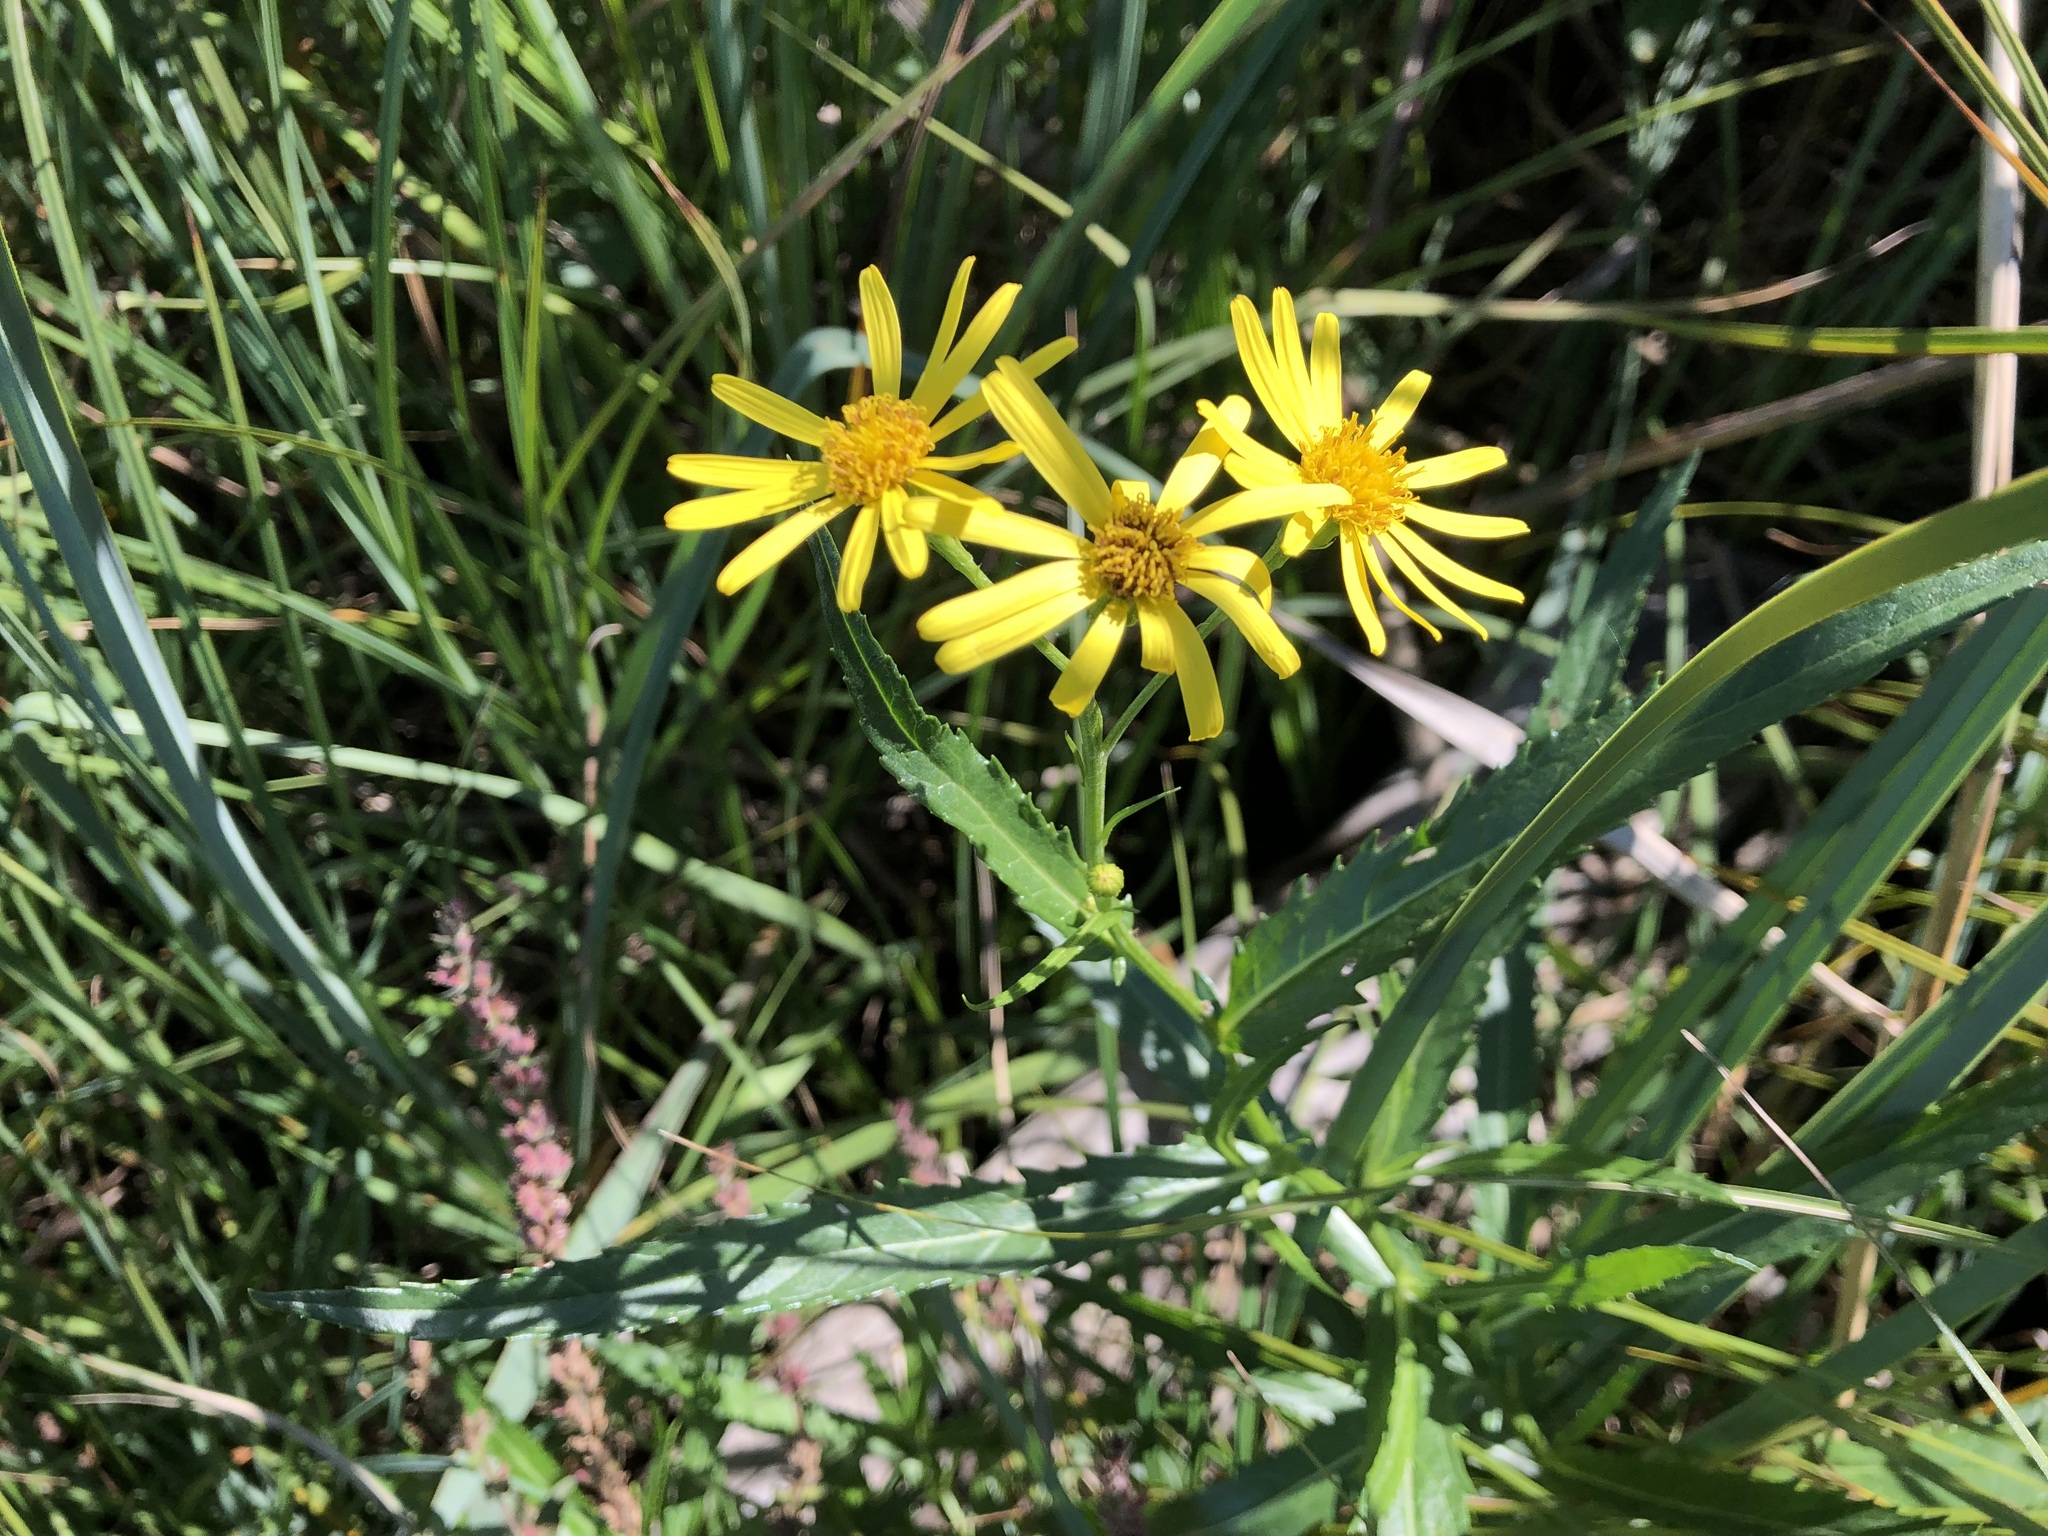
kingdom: Plantae
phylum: Tracheophyta
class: Magnoliopsida
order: Asterales
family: Asteraceae
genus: Jacobaea
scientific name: Jacobaea paludosa
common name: Fen ragwort
